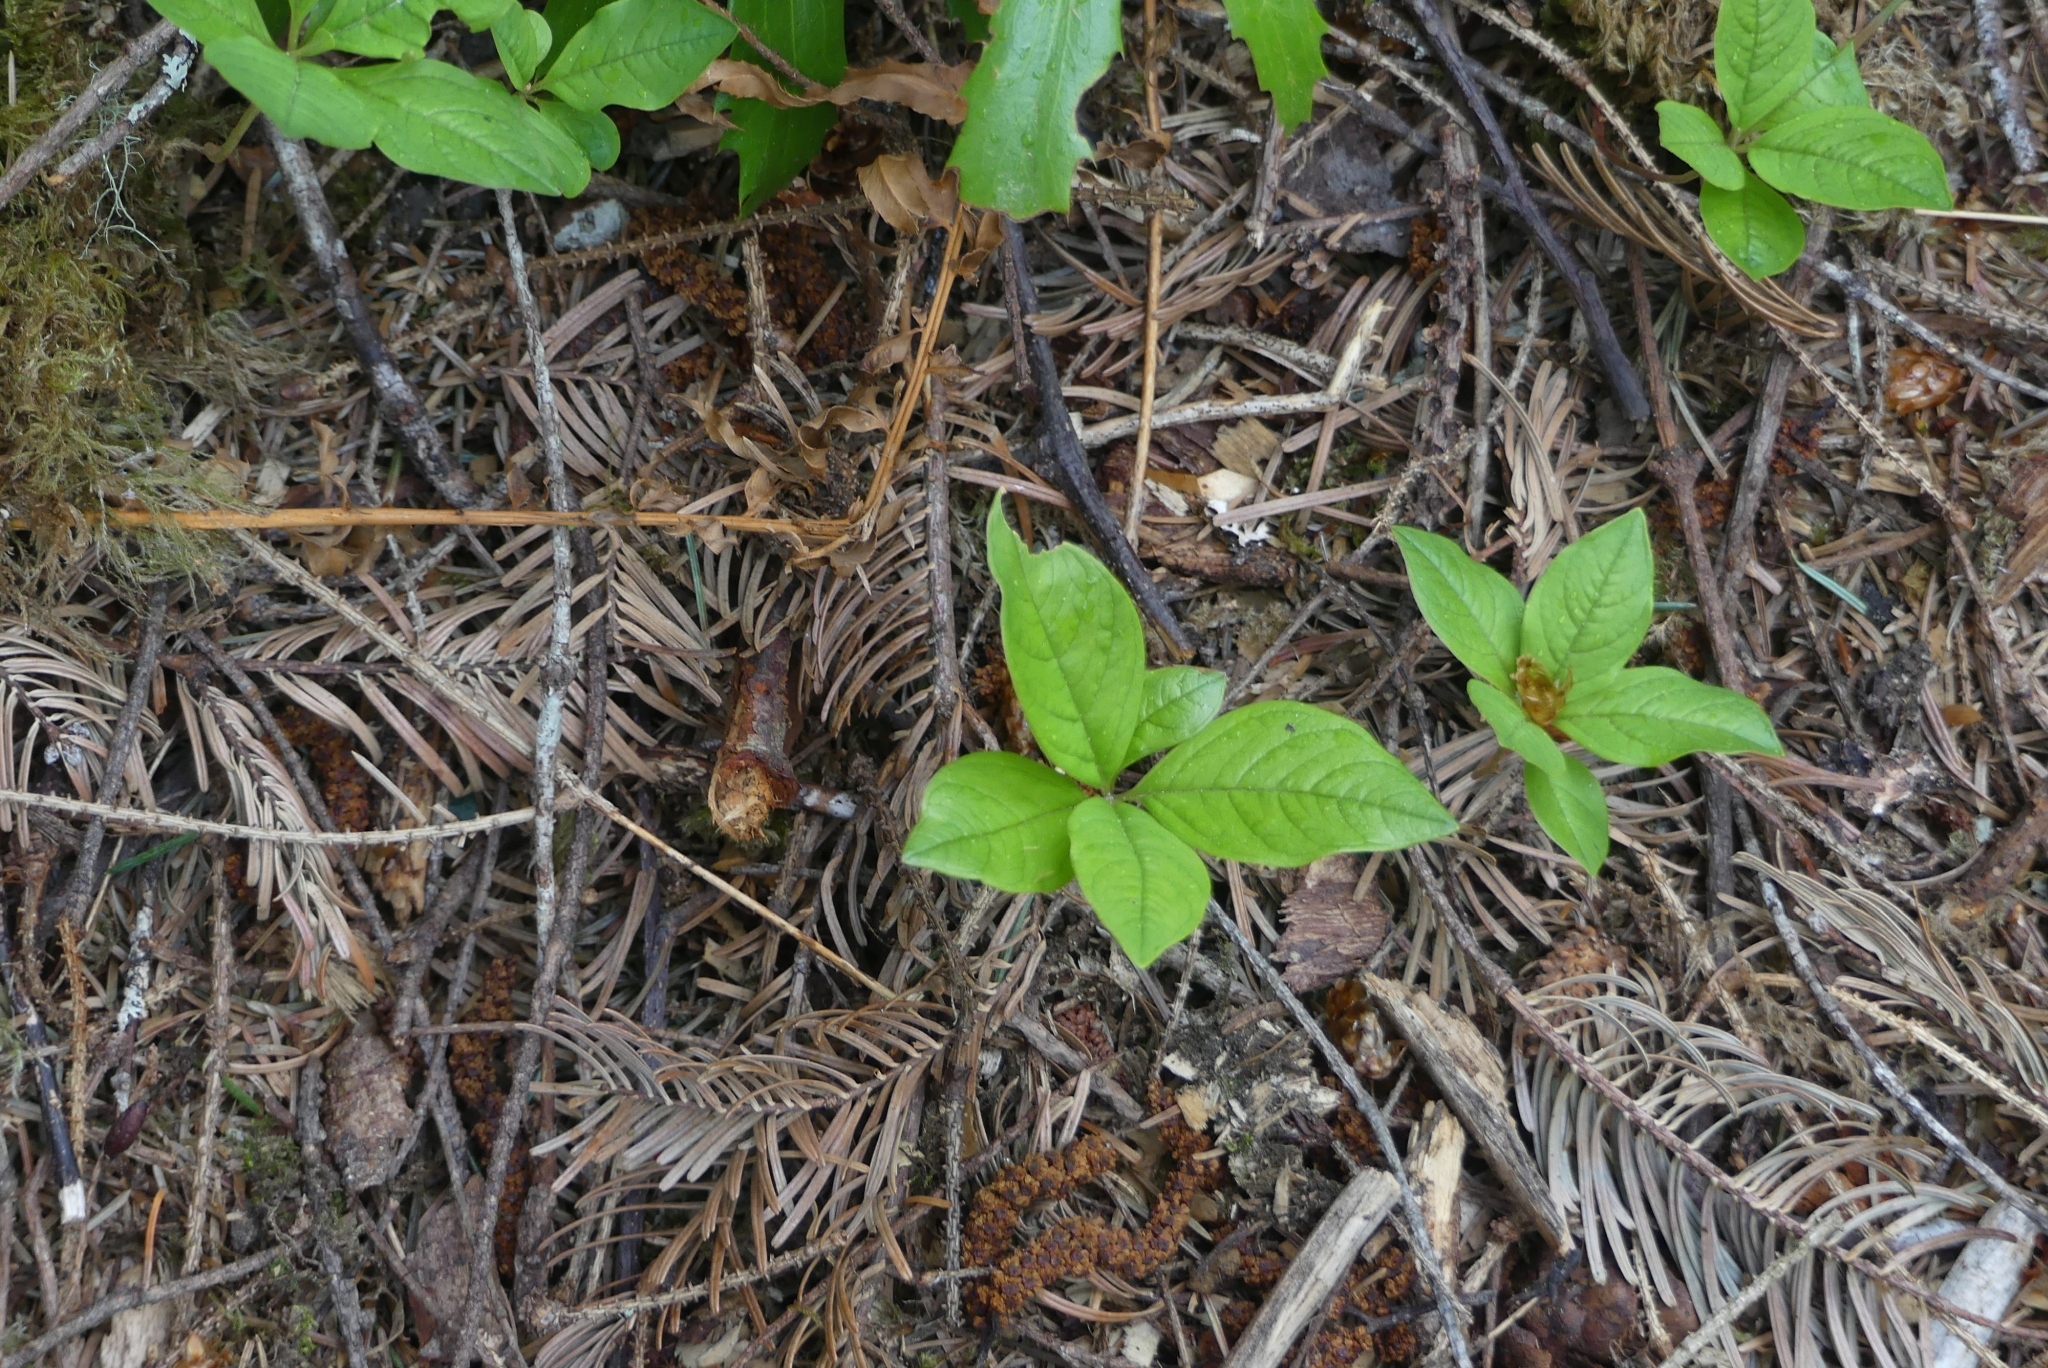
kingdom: Plantae
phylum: Tracheophyta
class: Magnoliopsida
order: Ericales
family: Primulaceae
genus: Lysimachia
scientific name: Lysimachia latifolia
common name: Pacific starflower
